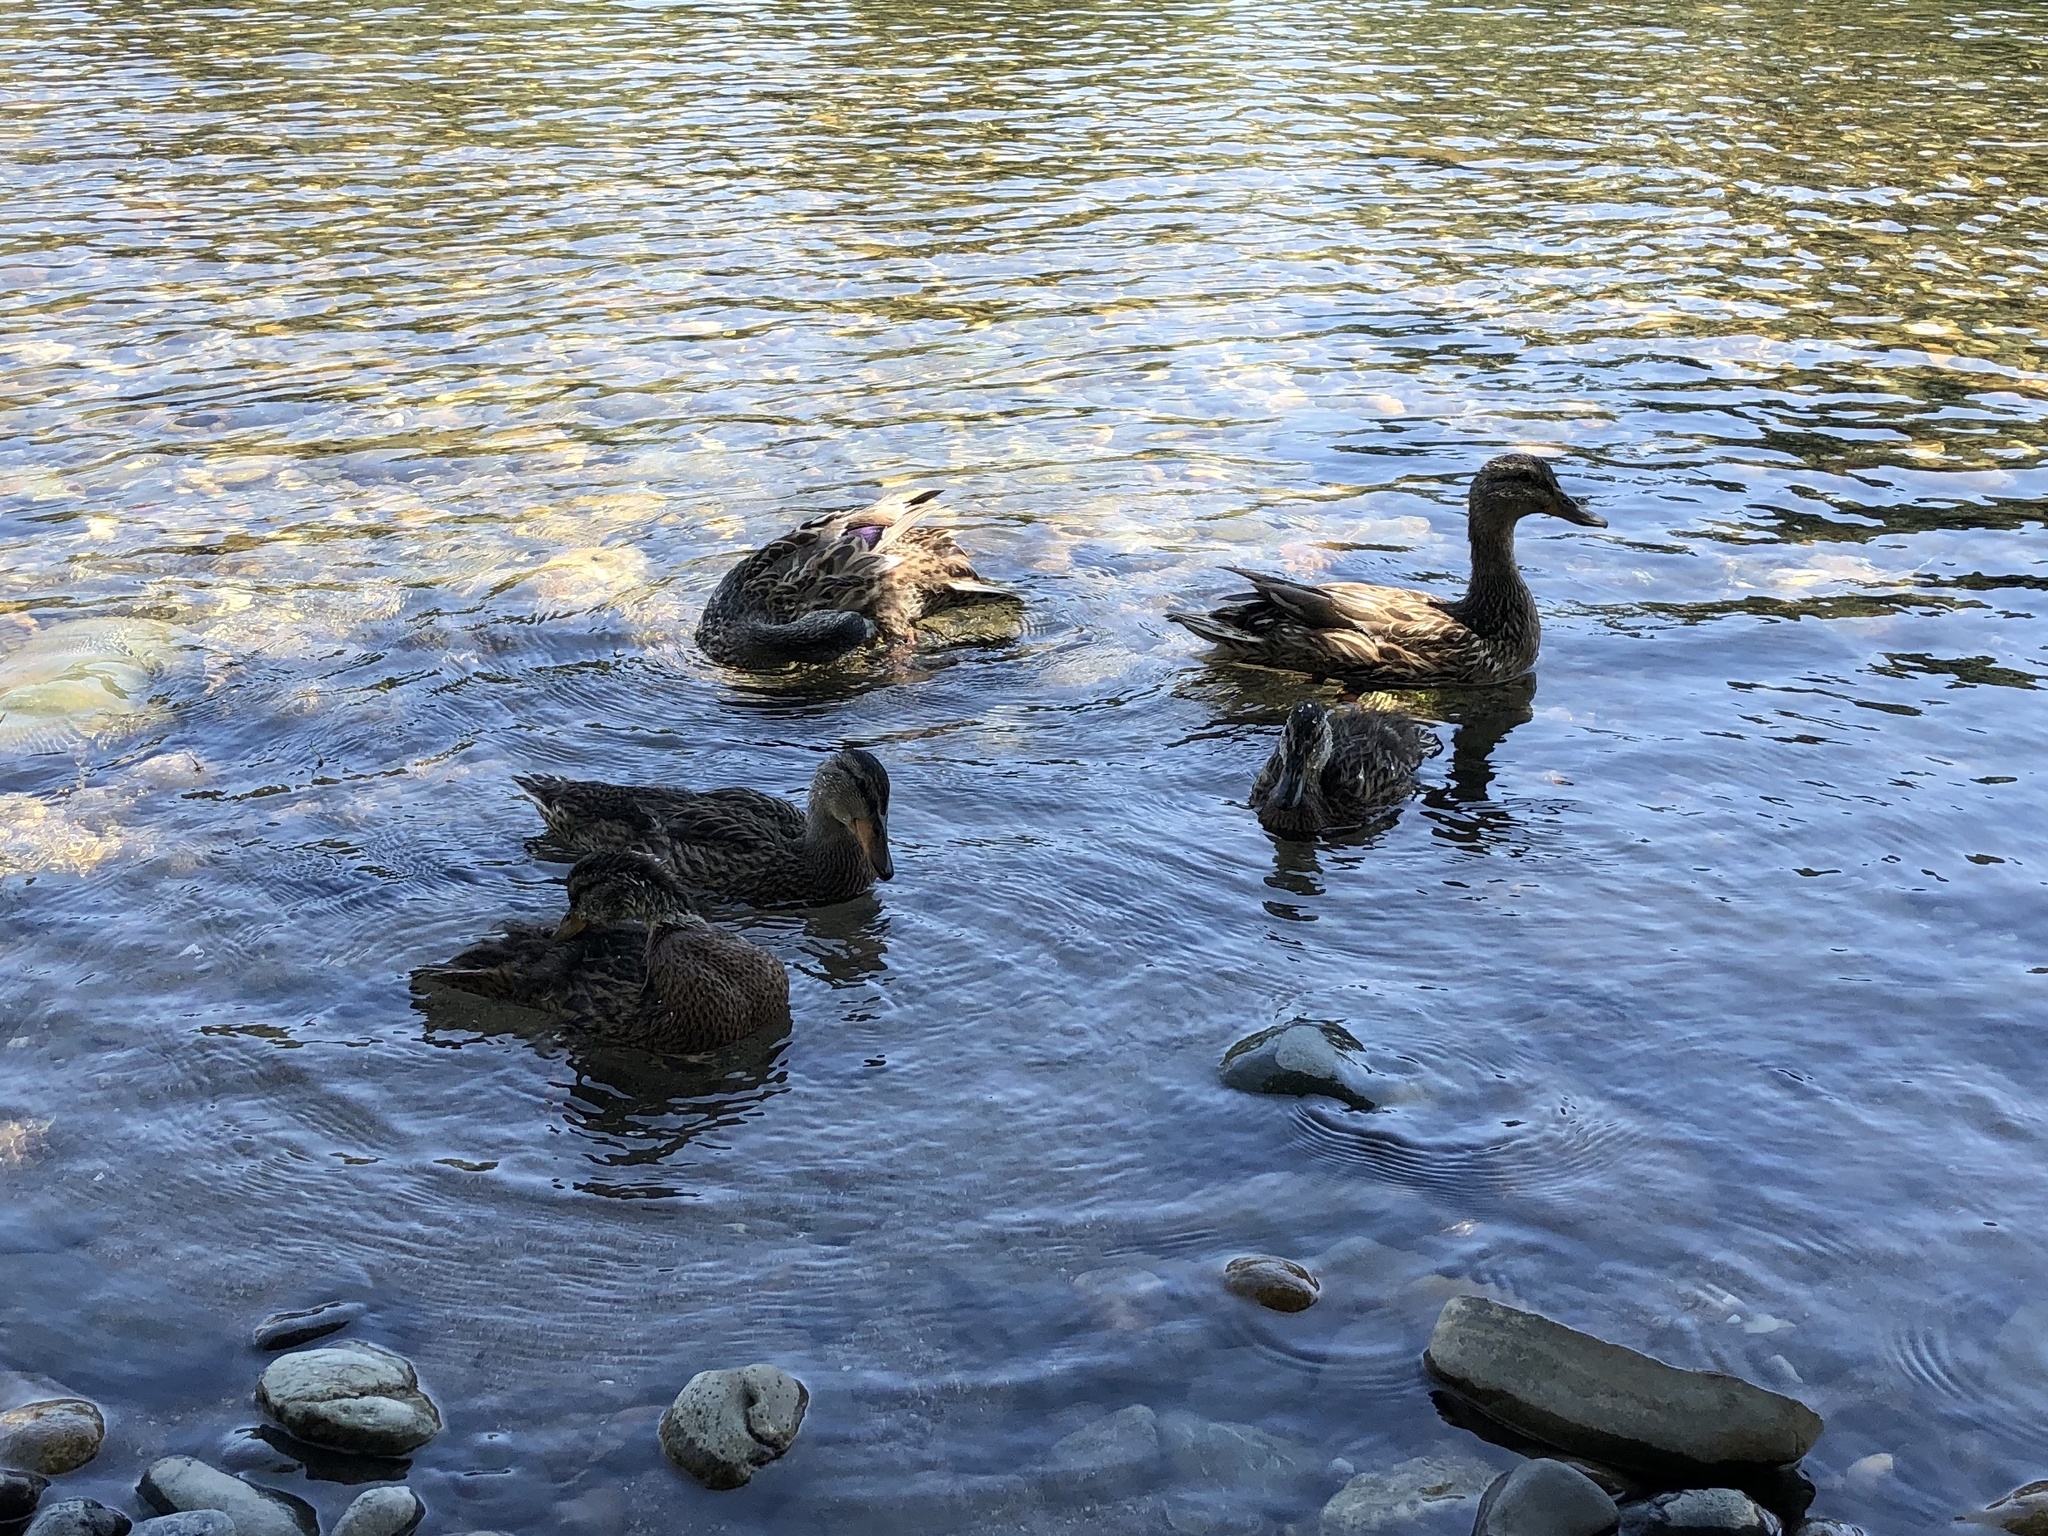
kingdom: Animalia
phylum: Chordata
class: Aves
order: Anseriformes
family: Anatidae
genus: Anas
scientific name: Anas platyrhynchos
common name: Mallard
